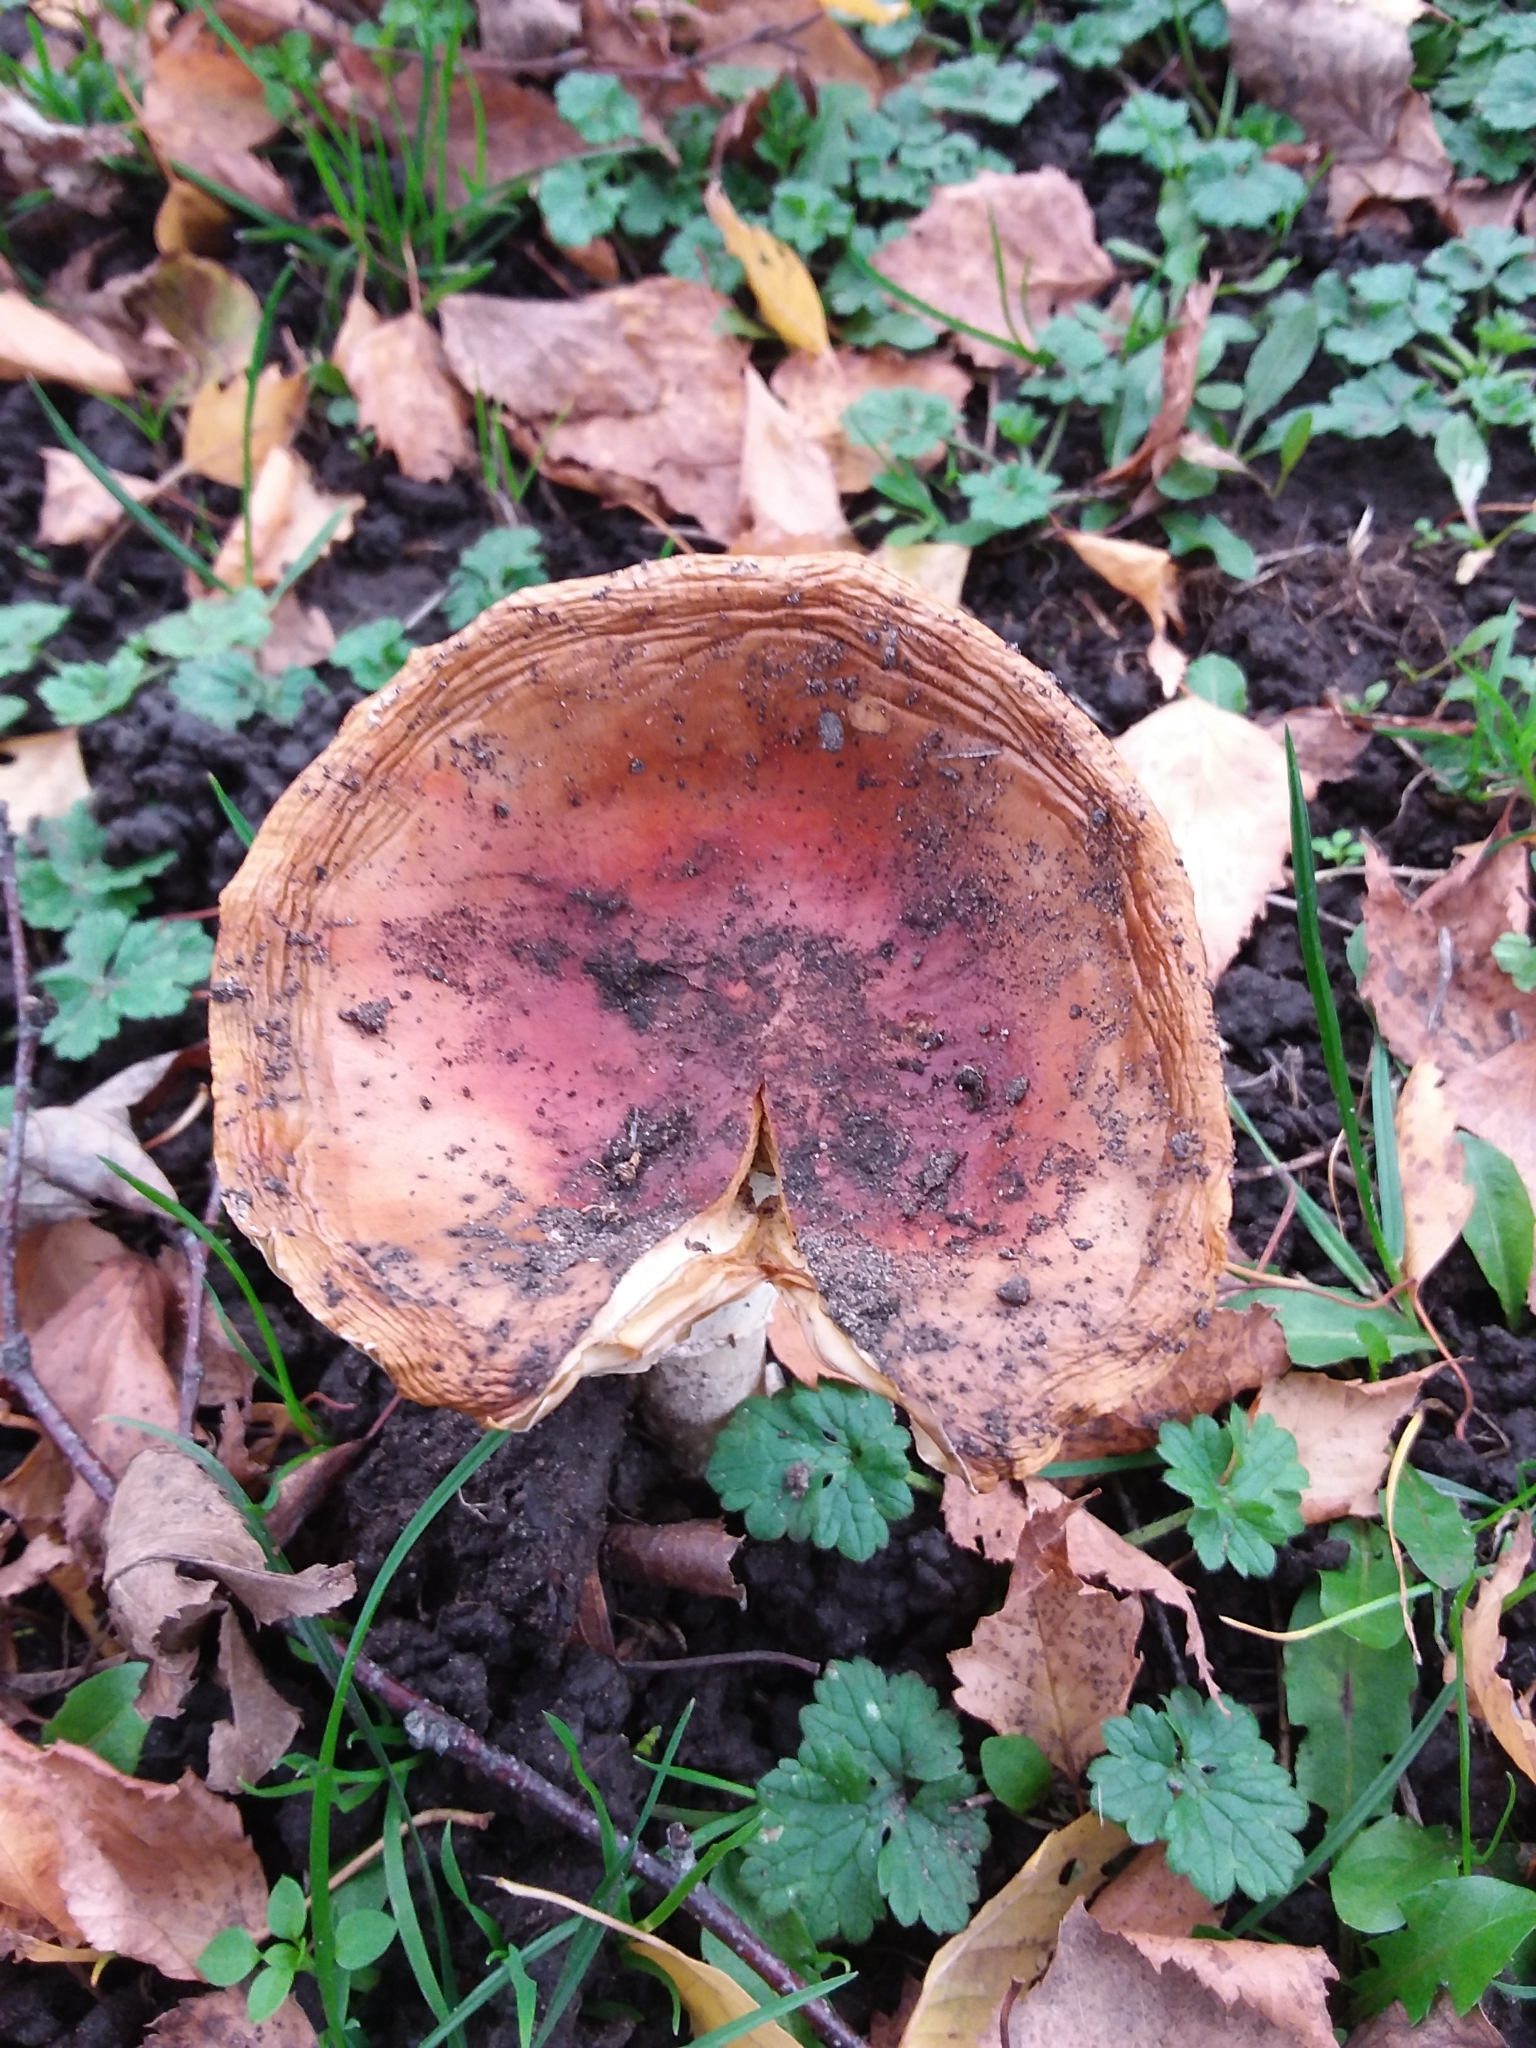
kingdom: Fungi
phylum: Basidiomycota
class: Agaricomycetes
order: Agaricales
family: Amanitaceae
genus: Amanita
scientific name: Amanita muscaria
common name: Fly agaric
